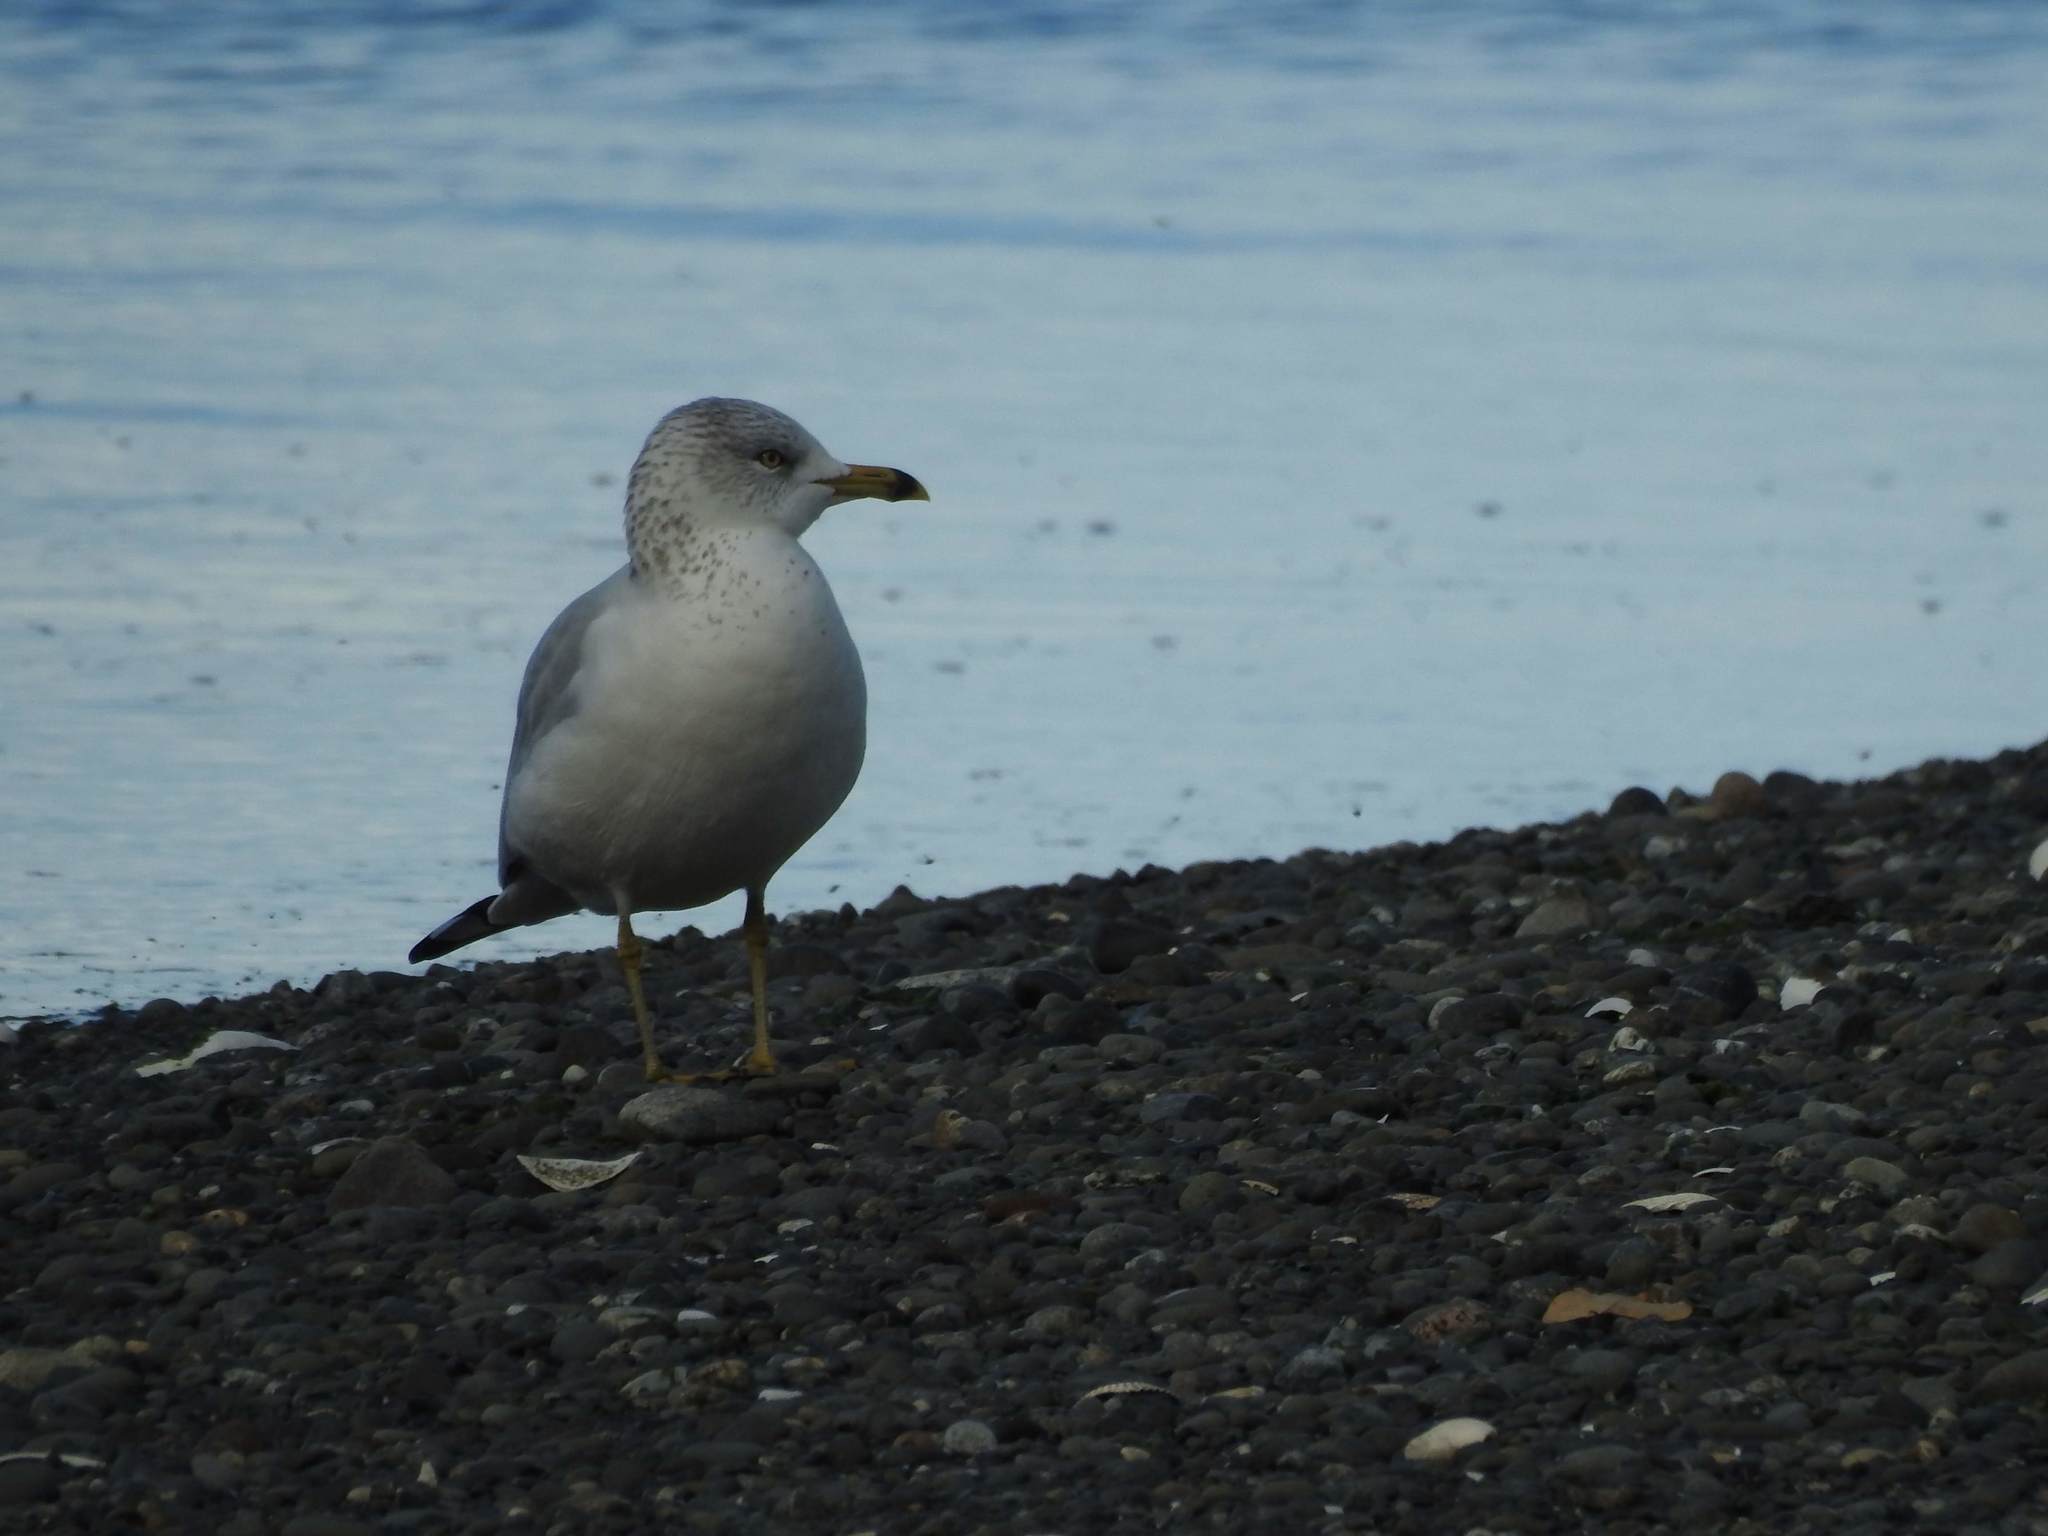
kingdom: Animalia
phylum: Chordata
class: Aves
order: Charadriiformes
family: Laridae
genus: Larus
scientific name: Larus delawarensis
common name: Ring-billed gull
